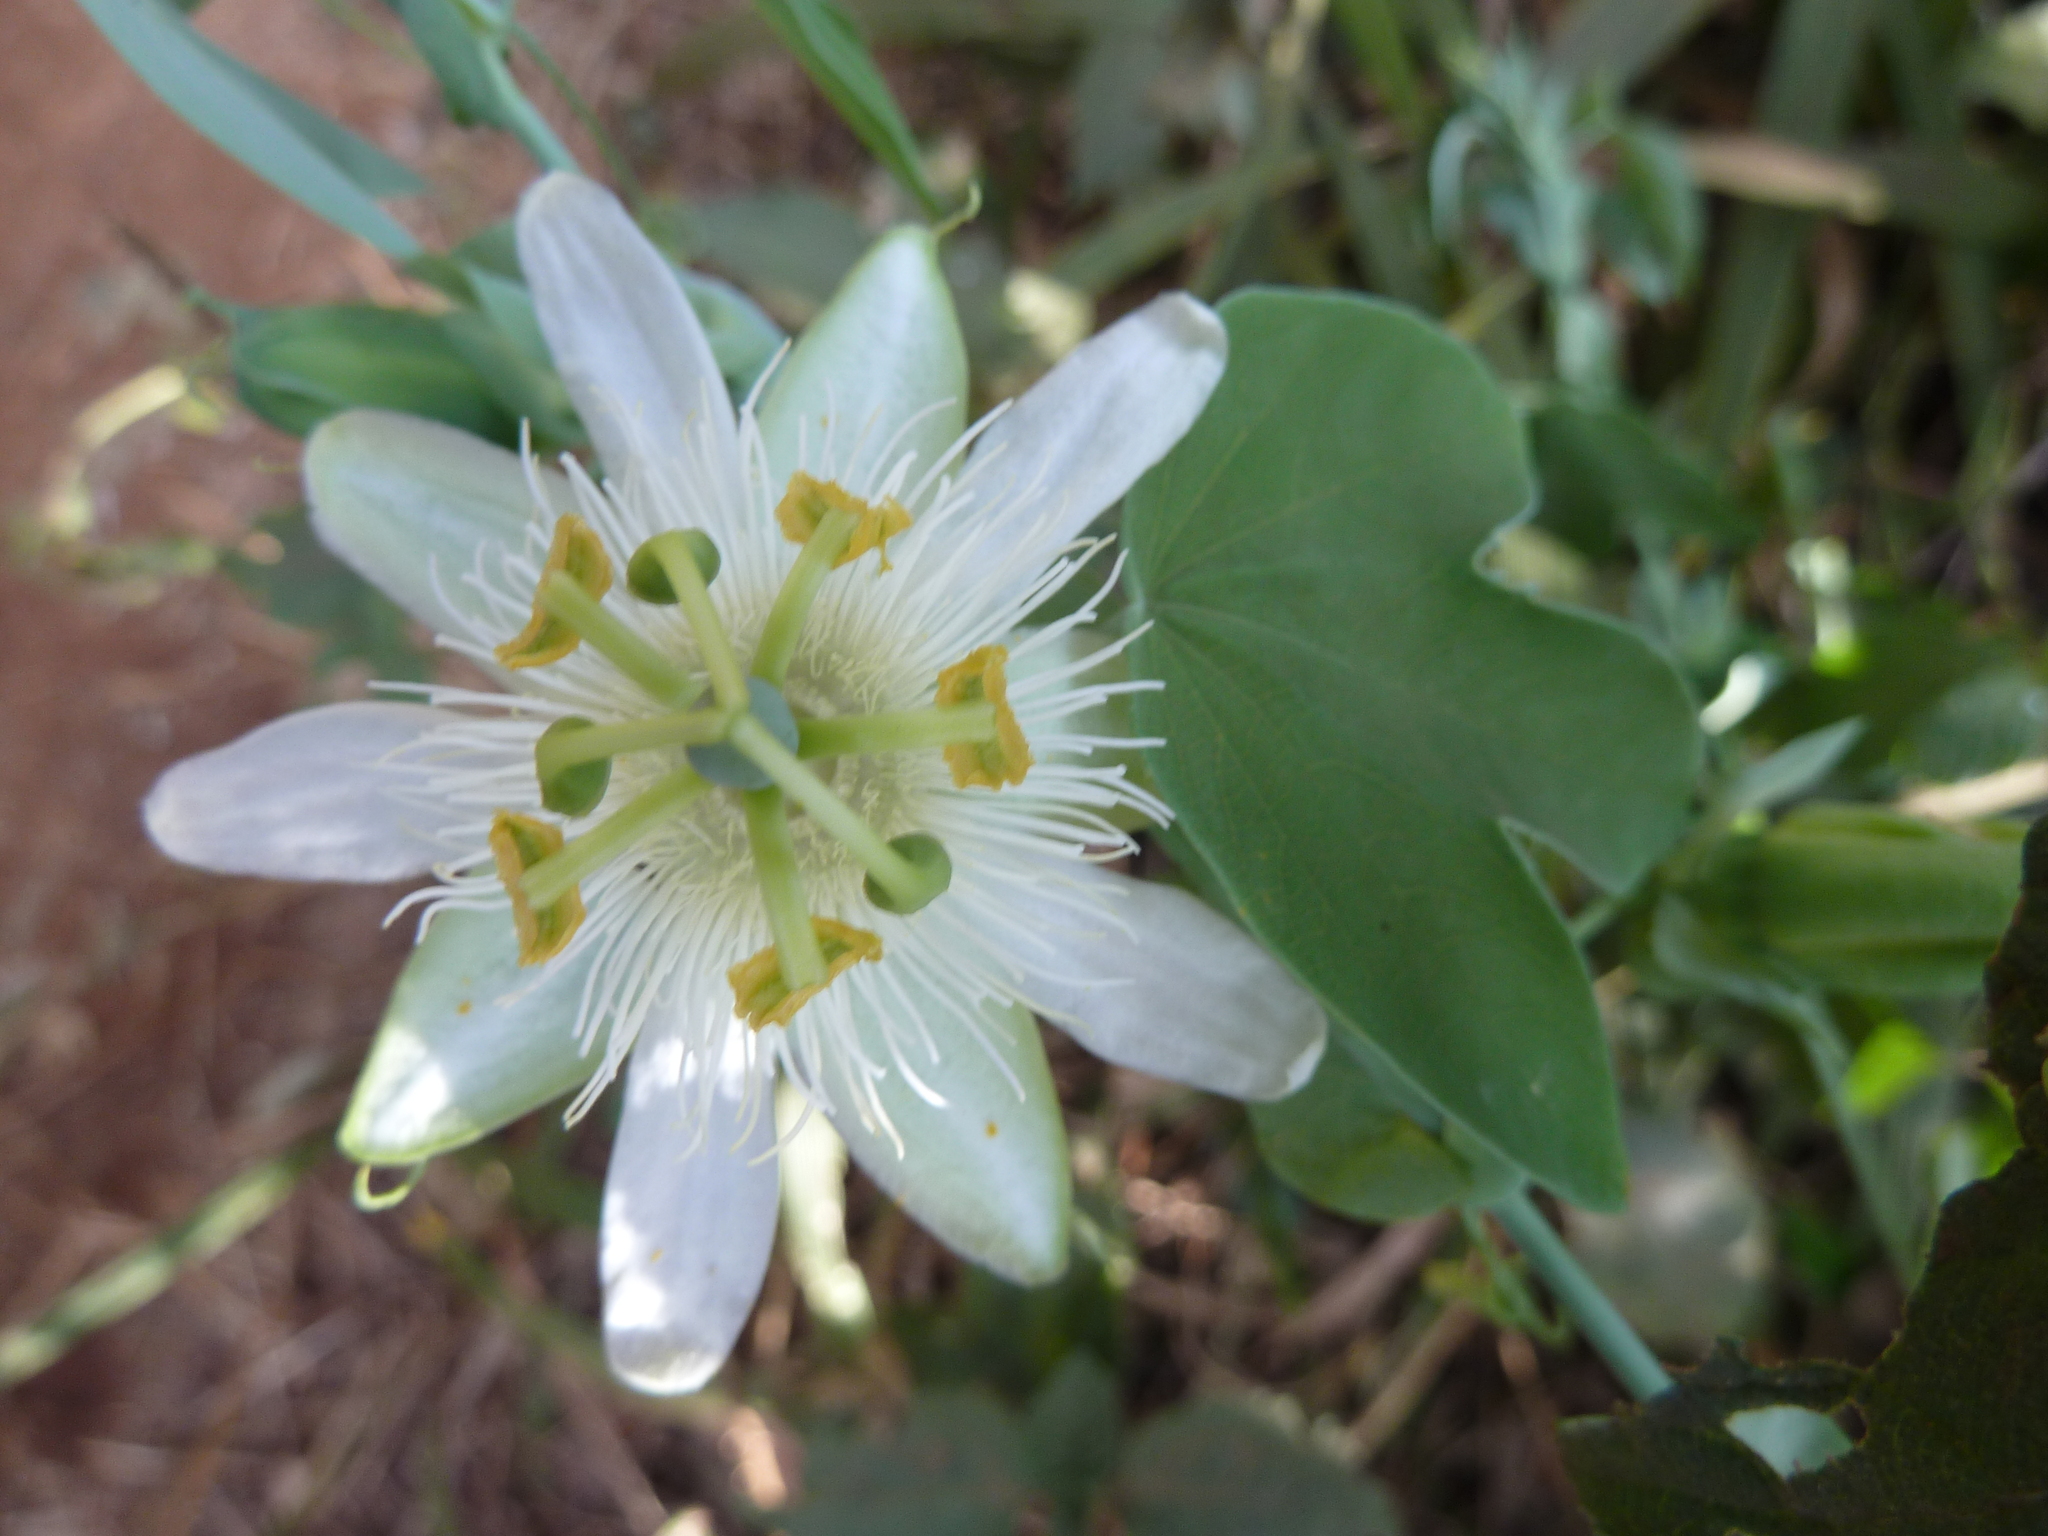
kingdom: Plantae
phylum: Tracheophyta
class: Magnoliopsida
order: Malpighiales
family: Passifloraceae
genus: Passiflora
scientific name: Passiflora subpeltata
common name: White passionflower
